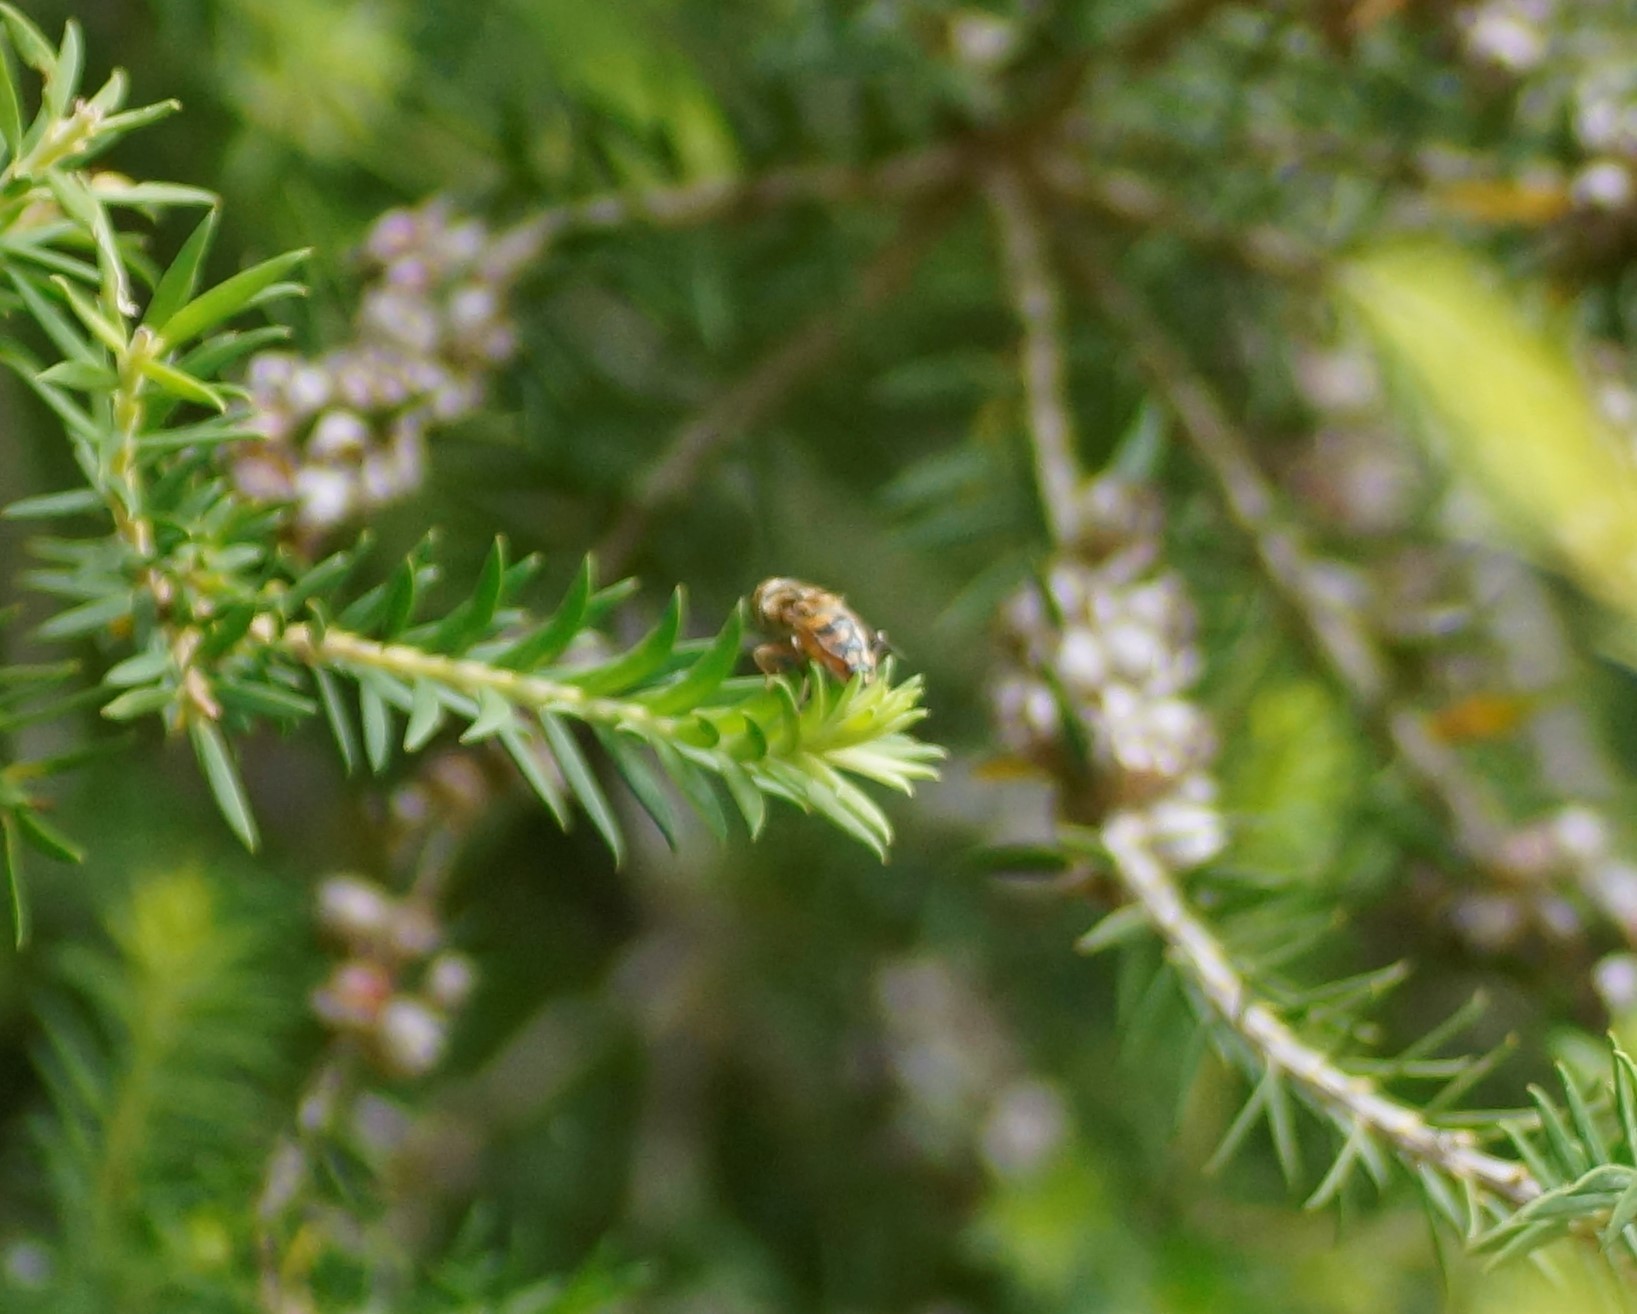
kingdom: Animalia
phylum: Arthropoda
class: Insecta
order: Diptera
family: Syrphidae
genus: Eristalinus
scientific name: Eristalinus punctulatus
